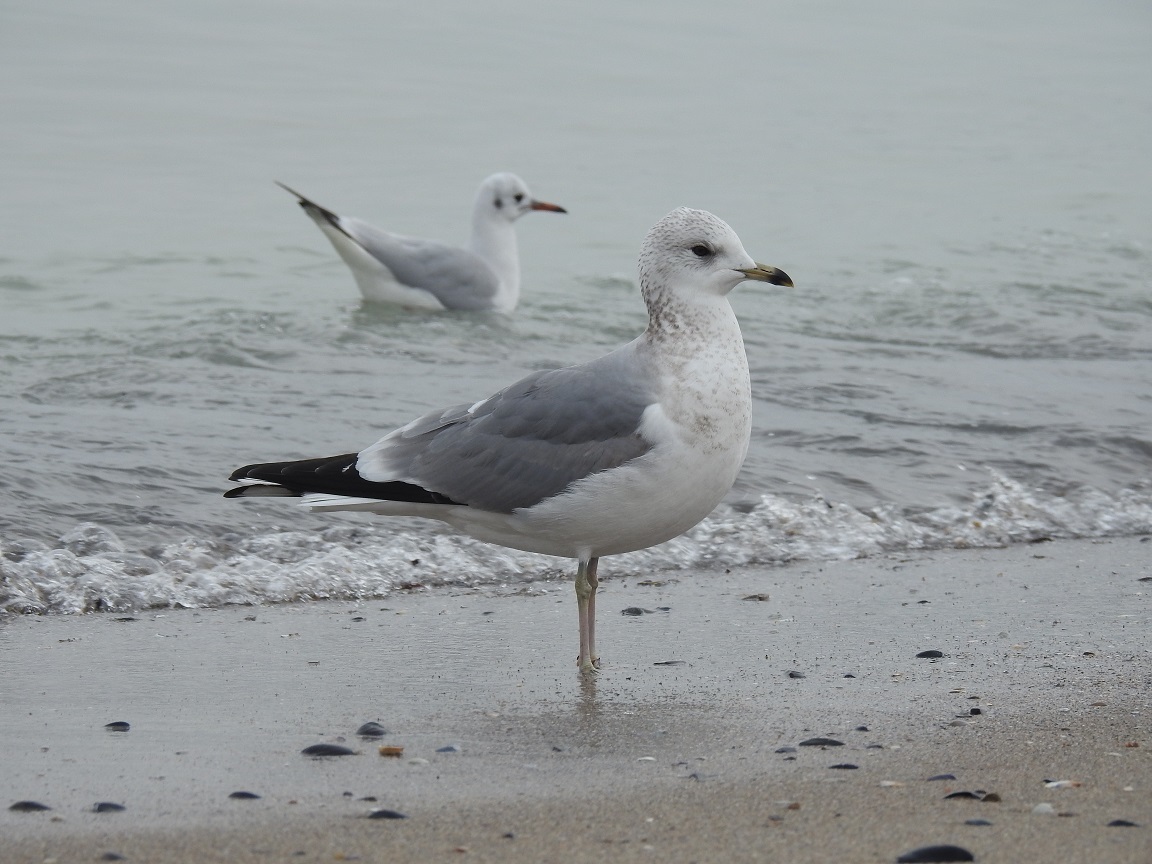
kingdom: Animalia
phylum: Chordata
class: Aves
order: Charadriiformes
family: Laridae
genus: Larus
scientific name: Larus canus
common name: Mew gull
